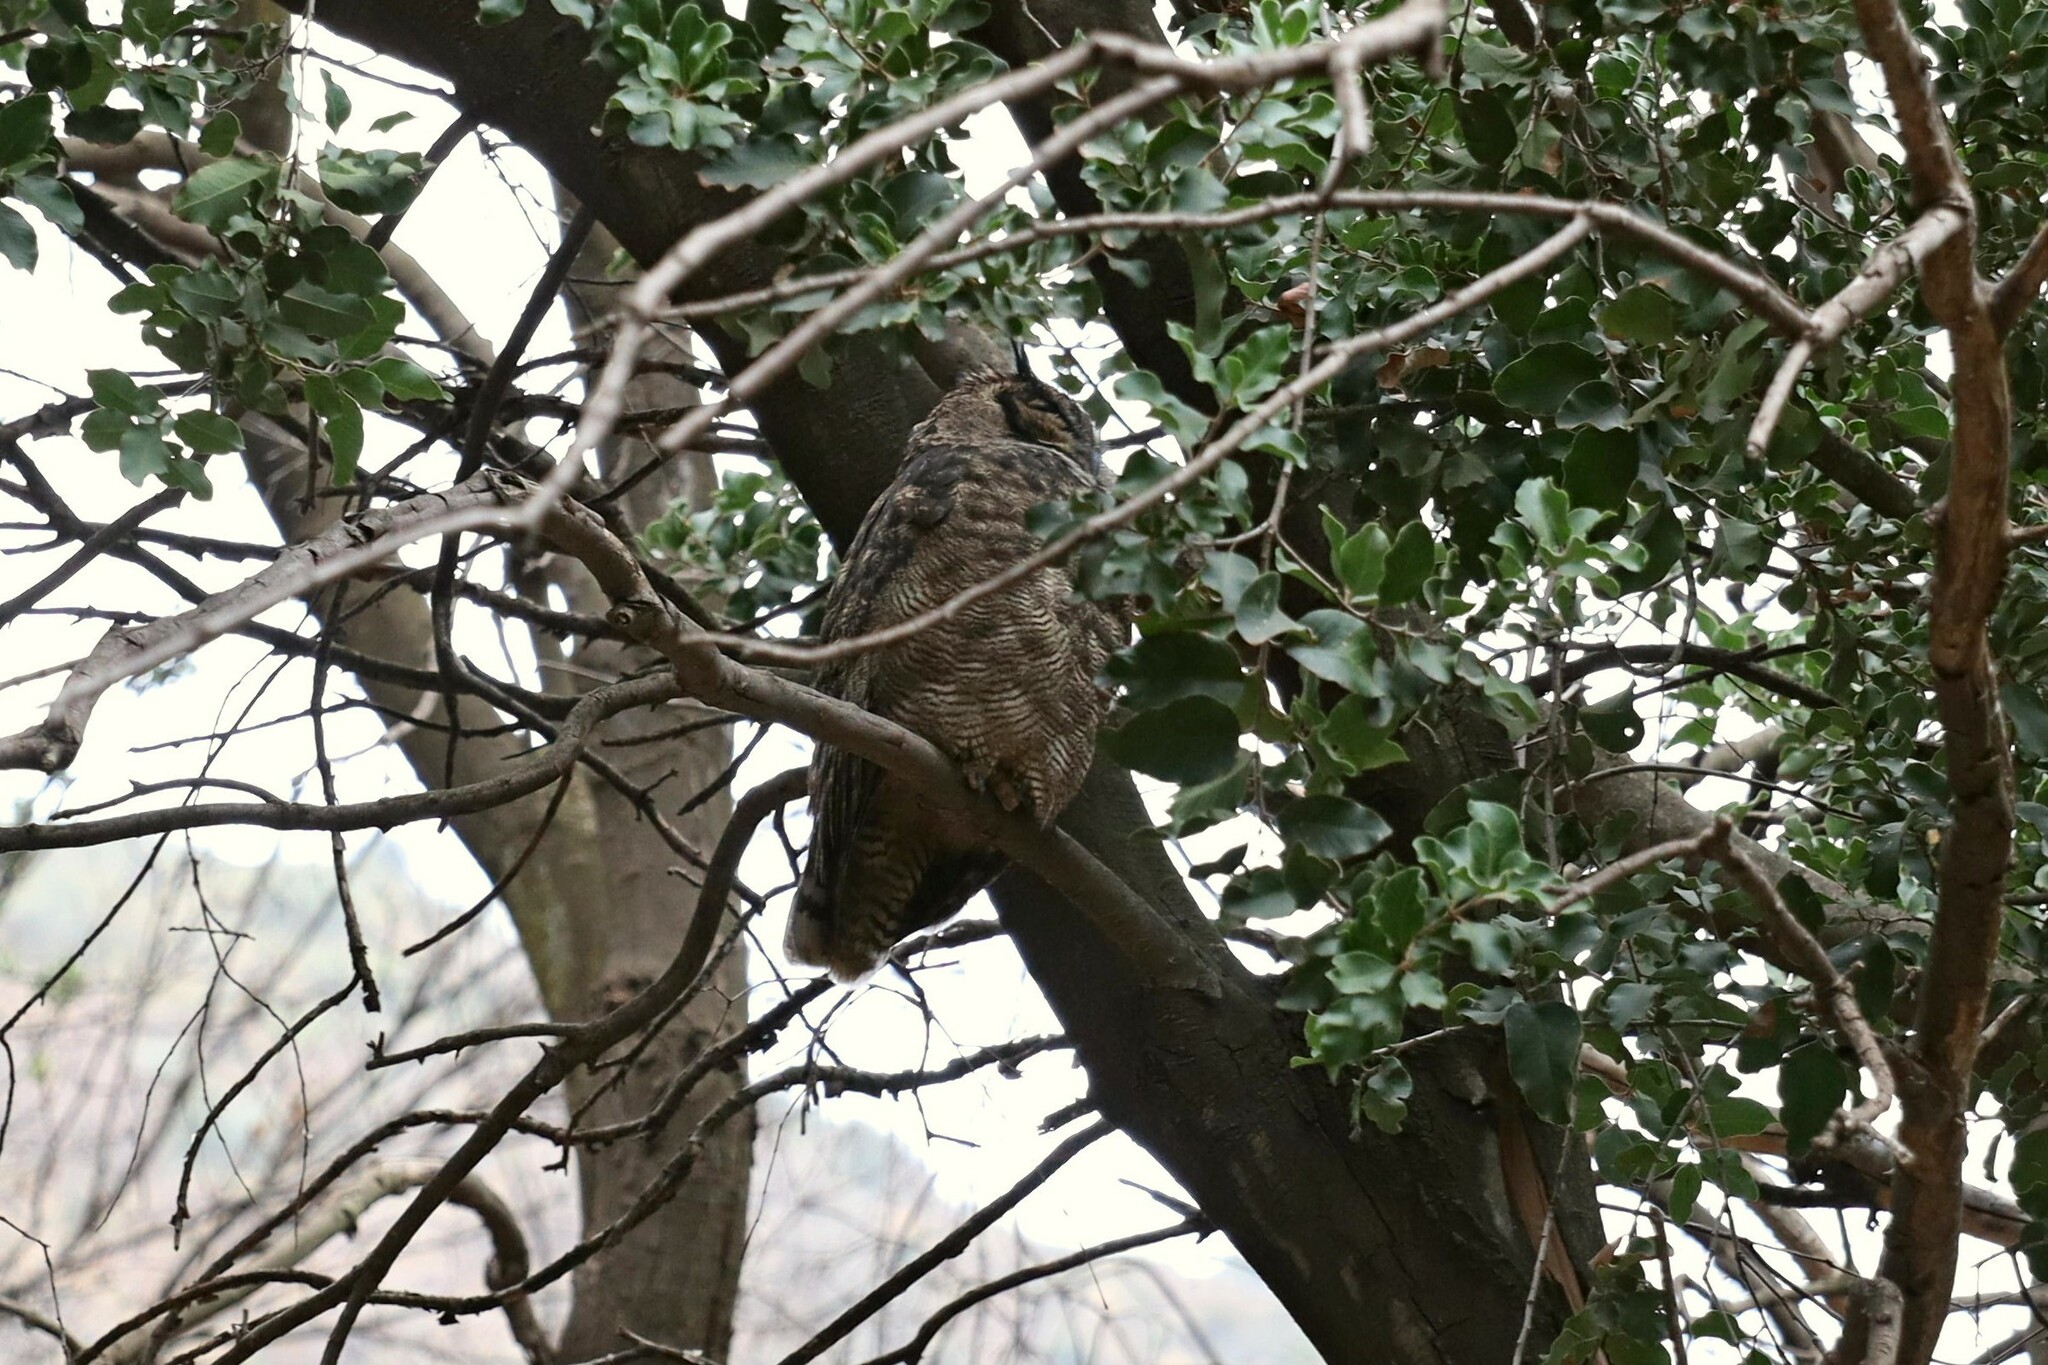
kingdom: Animalia
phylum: Chordata
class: Aves
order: Strigiformes
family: Strigidae
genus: Bubo
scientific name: Bubo magellanicus
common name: Lesser horned owl
